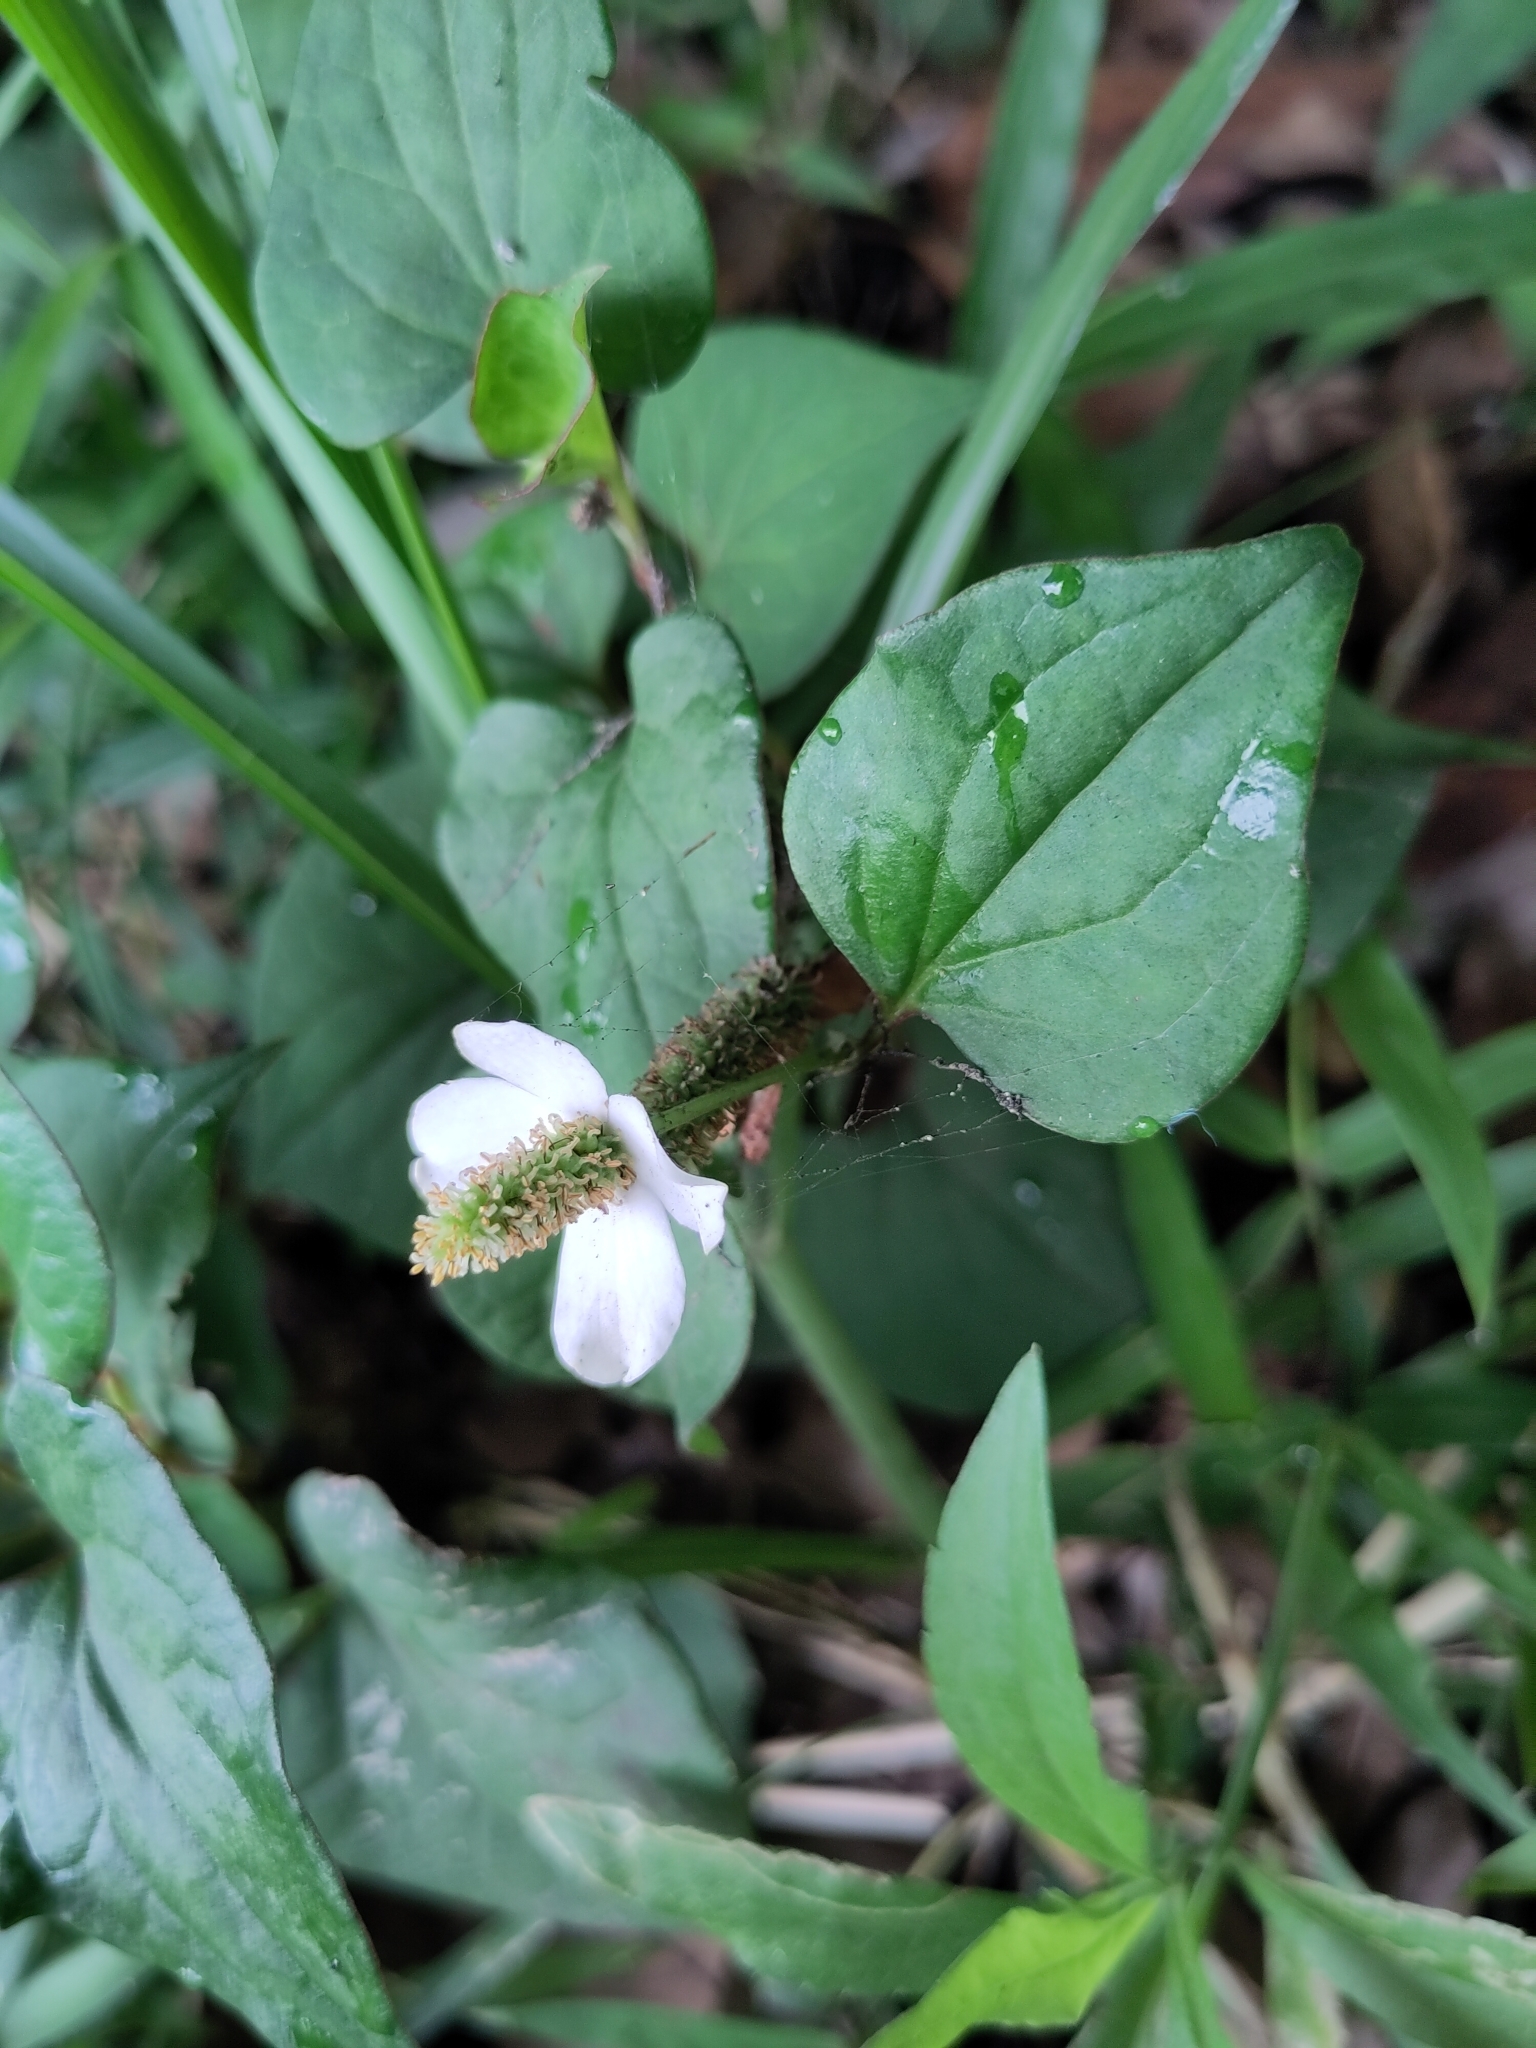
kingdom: Plantae
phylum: Tracheophyta
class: Magnoliopsida
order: Piperales
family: Saururaceae
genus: Houttuynia
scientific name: Houttuynia cordata
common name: Chameleon
